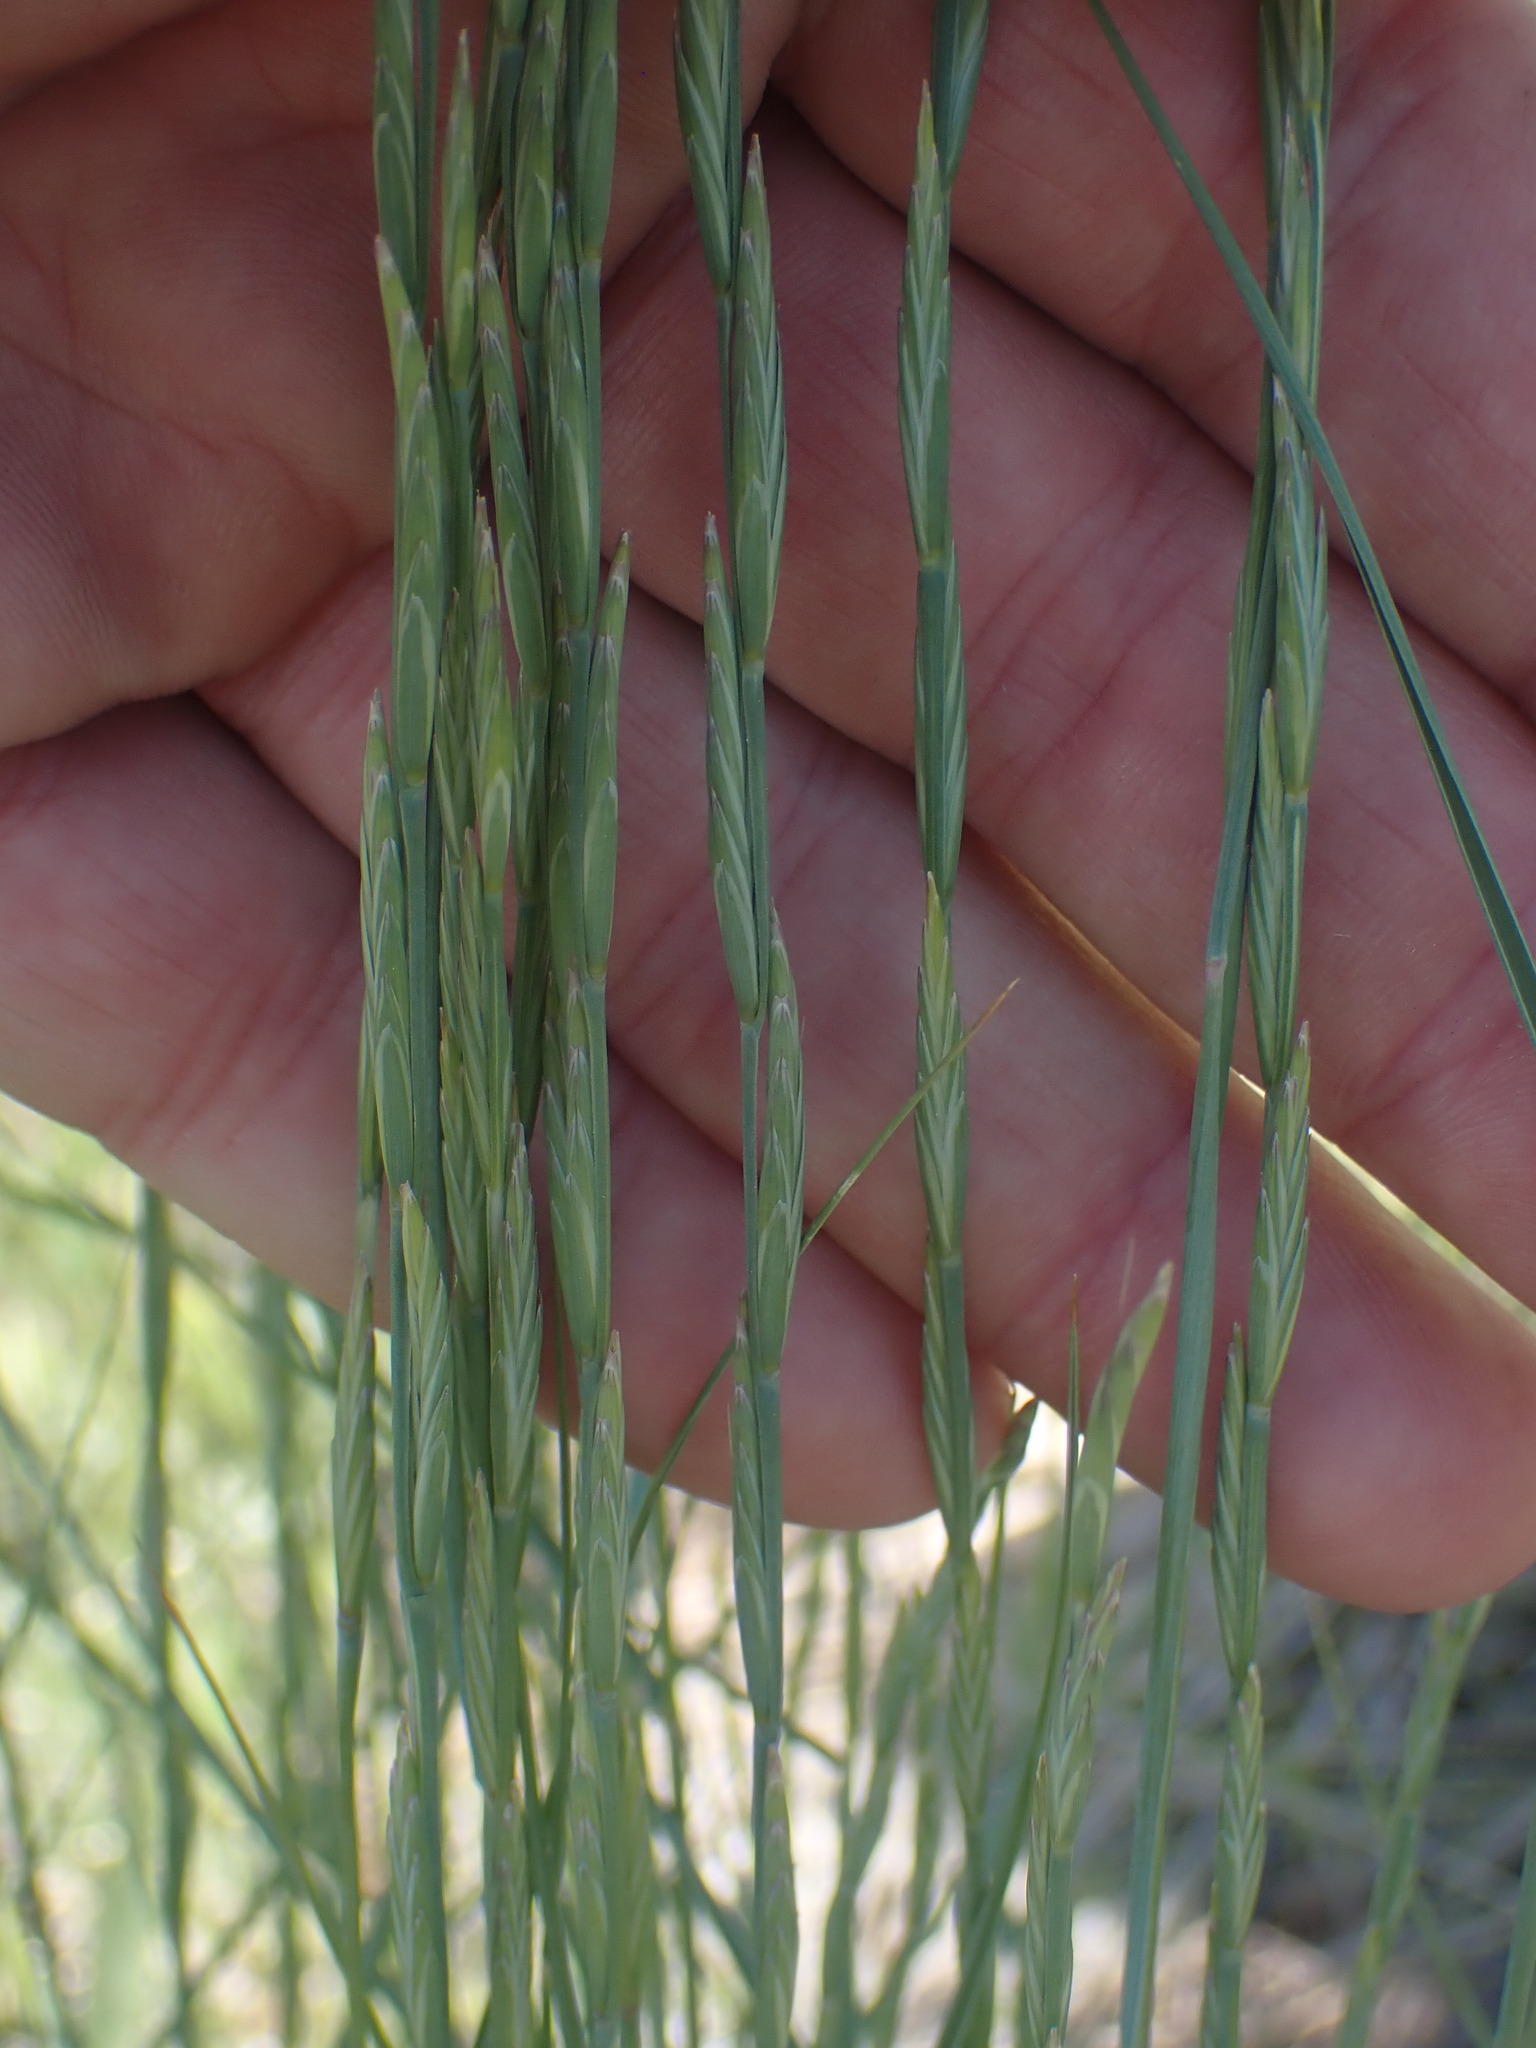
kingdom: Plantae
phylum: Tracheophyta
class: Liliopsida
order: Poales
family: Poaceae
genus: Pseudoroegneria
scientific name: Pseudoroegneria spicata
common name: Bluebunch wheatgrass
